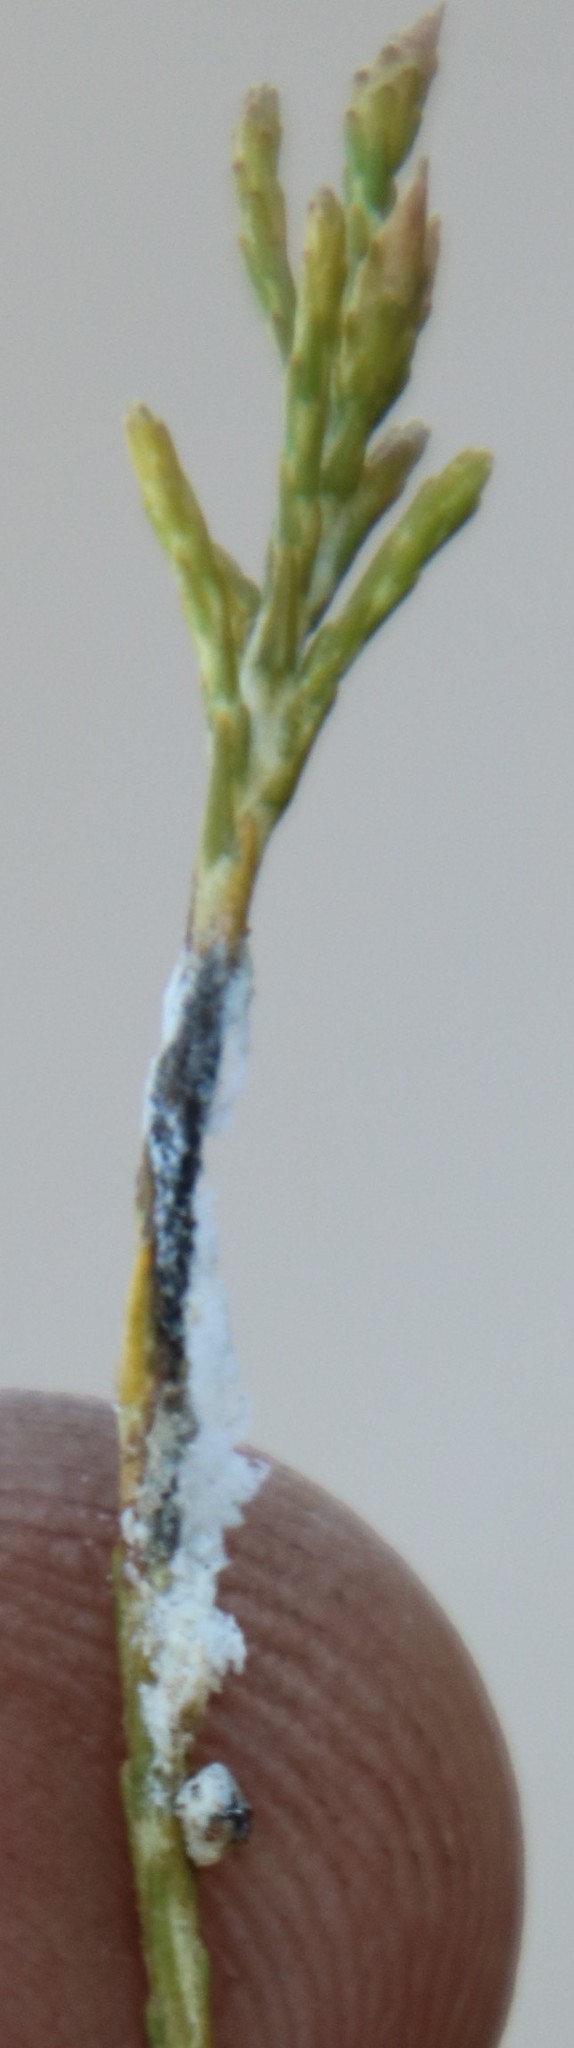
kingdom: Plantae
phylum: Tracheophyta
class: Magnoliopsida
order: Asterales
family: Asteraceae
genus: Dicerothamnus
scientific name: Dicerothamnus rhinocerotis
